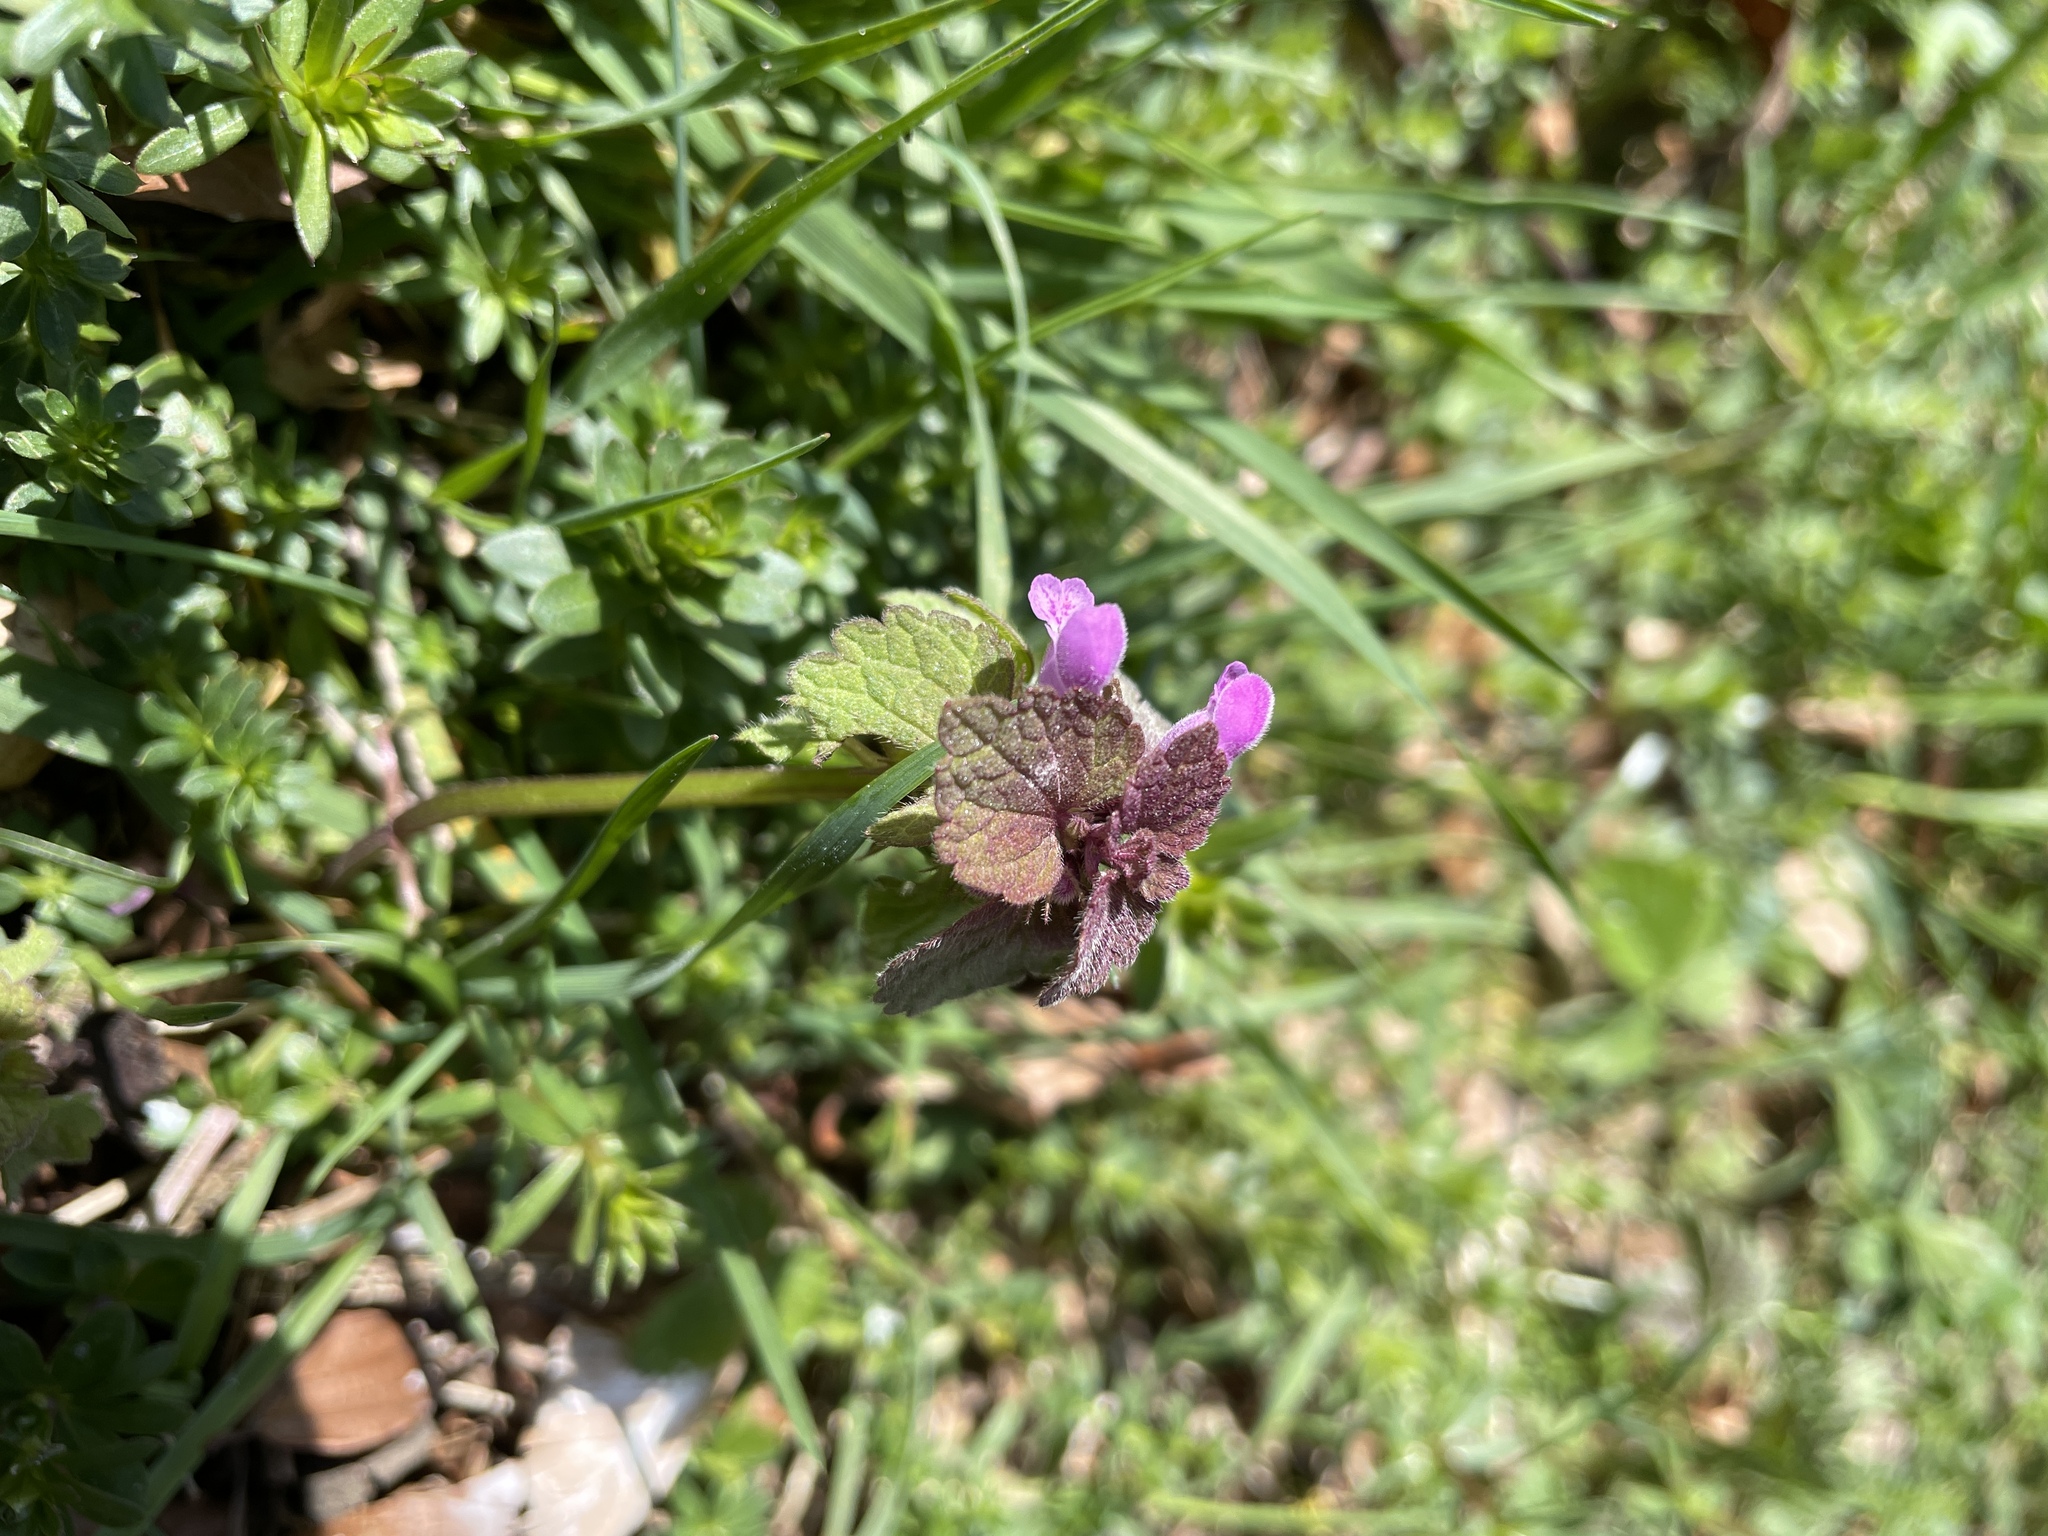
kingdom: Plantae
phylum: Tracheophyta
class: Magnoliopsida
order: Lamiales
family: Lamiaceae
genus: Lamium
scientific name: Lamium purpureum
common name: Red dead-nettle
